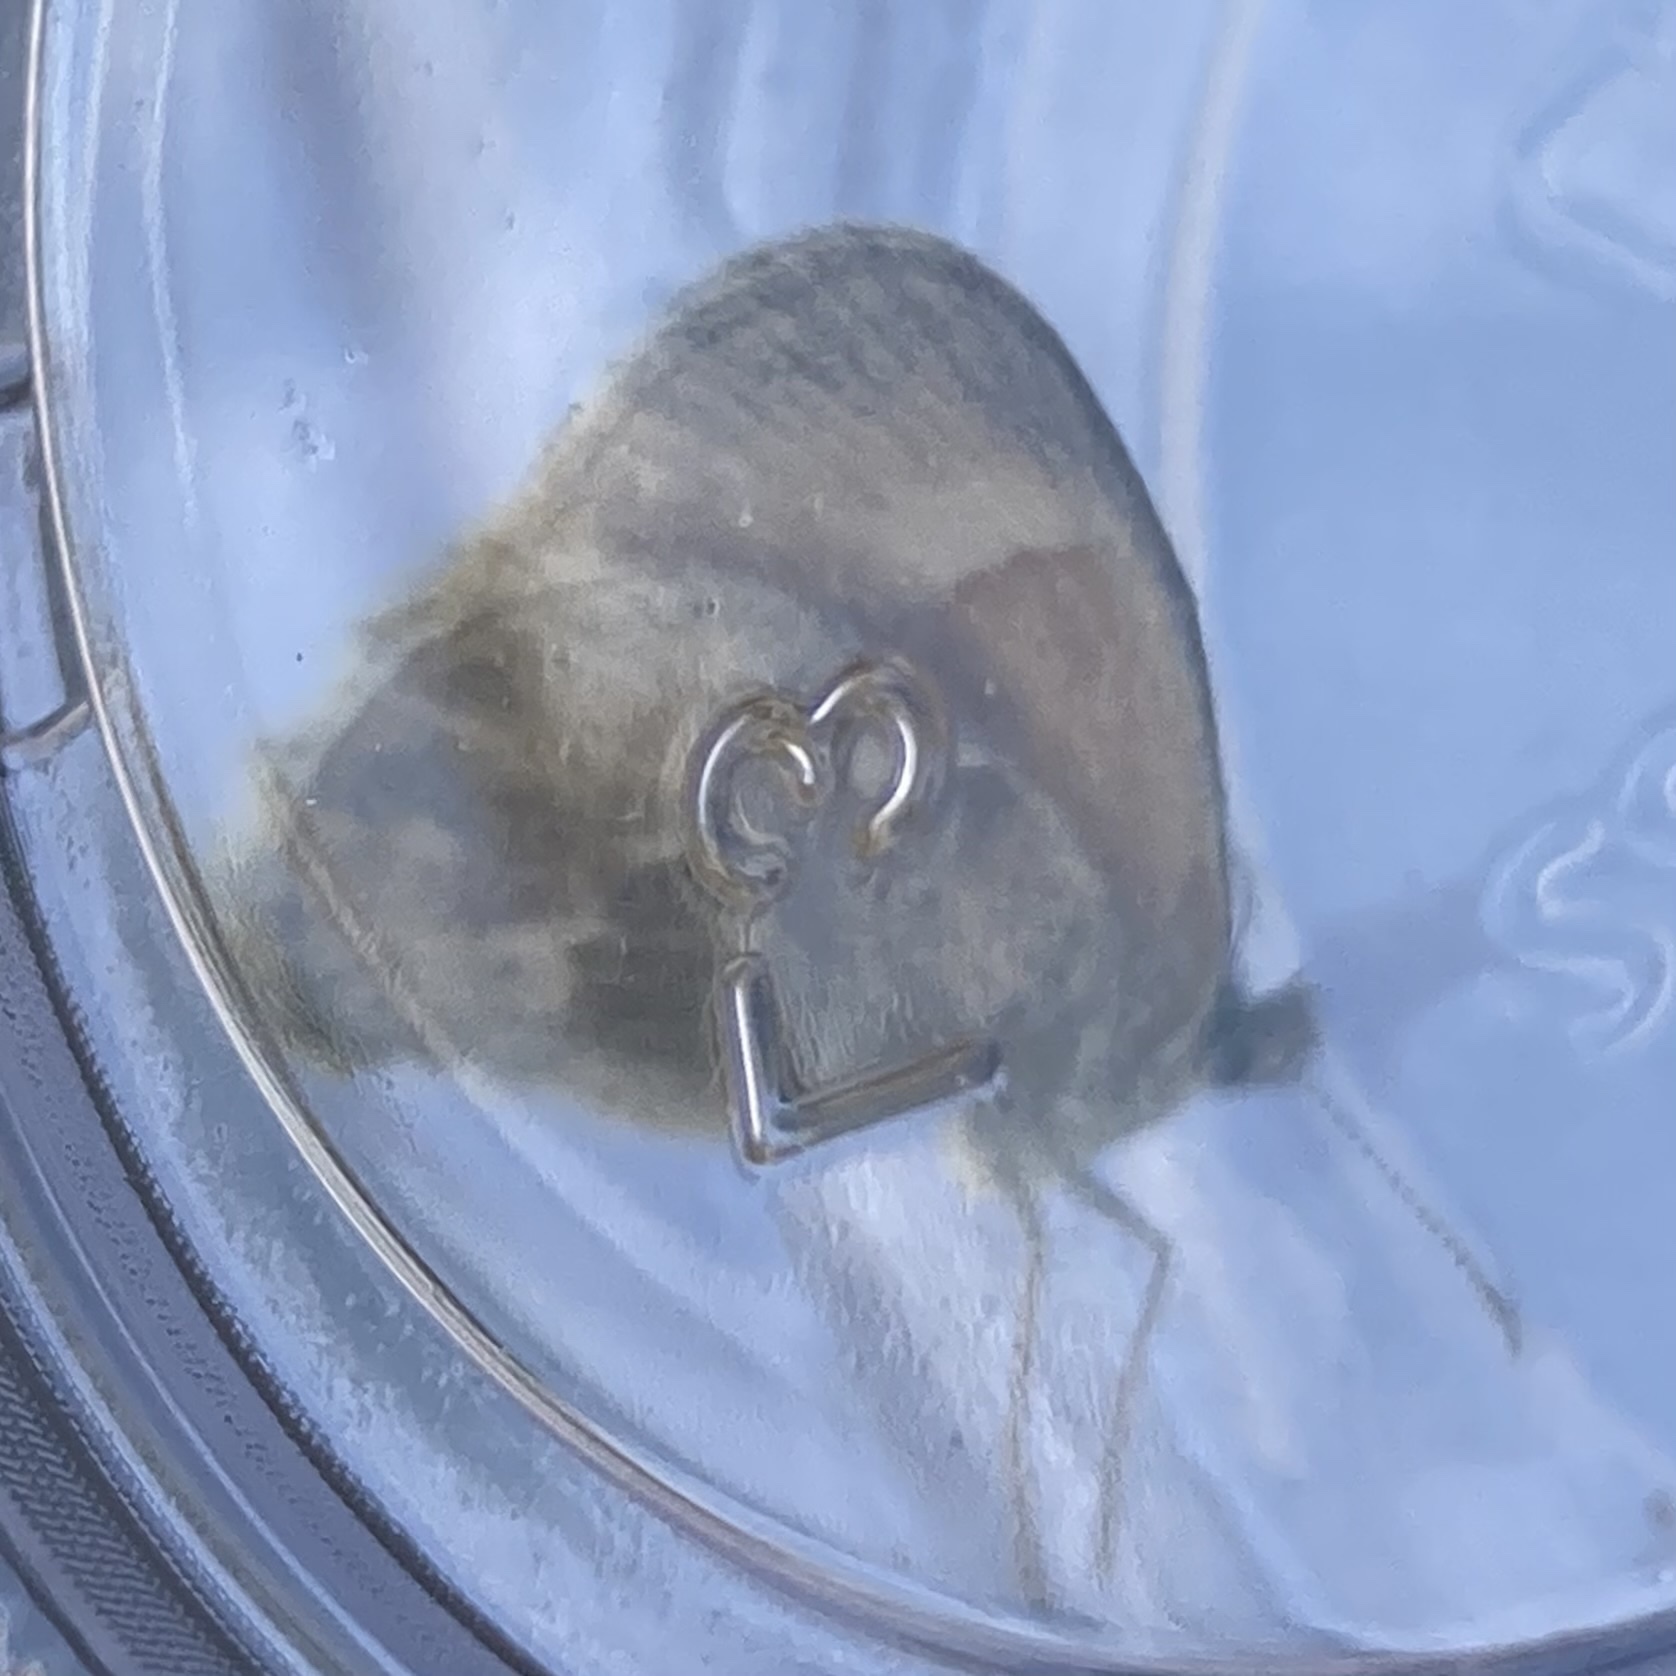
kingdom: Animalia
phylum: Arthropoda
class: Insecta
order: Lepidoptera
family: Nymphalidae
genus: Coenonympha
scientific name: Coenonympha california
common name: Common ringlet
